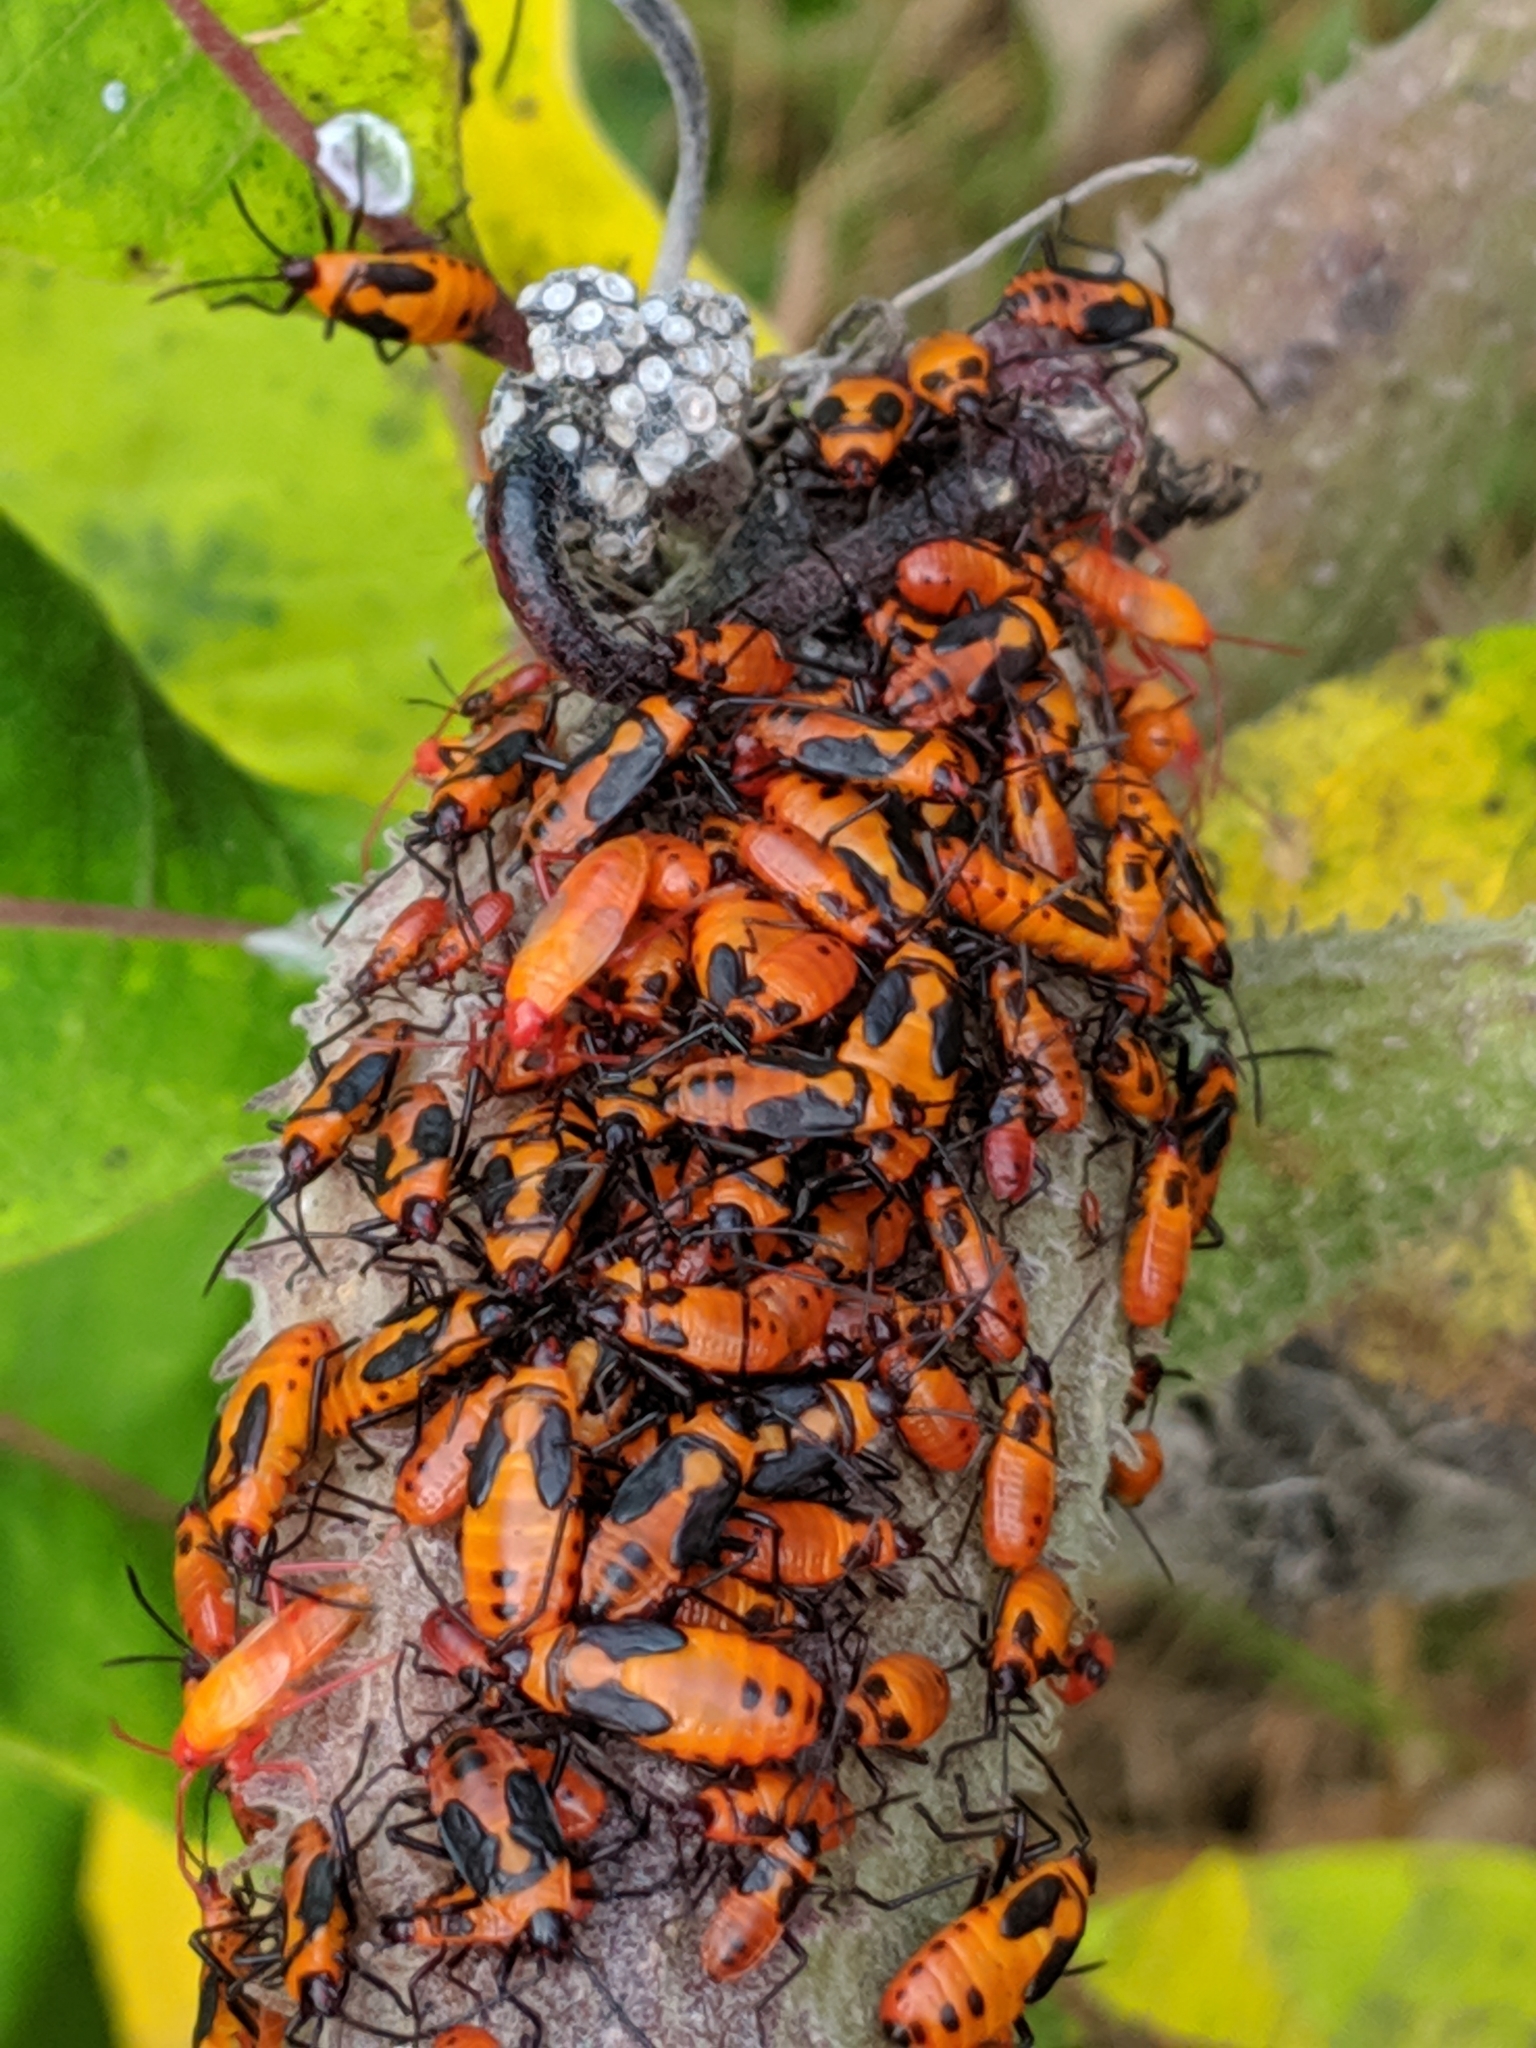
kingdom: Animalia
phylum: Arthropoda
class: Insecta
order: Hemiptera
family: Lygaeidae
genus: Oncopeltus
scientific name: Oncopeltus fasciatus
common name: Large milkweed bug
